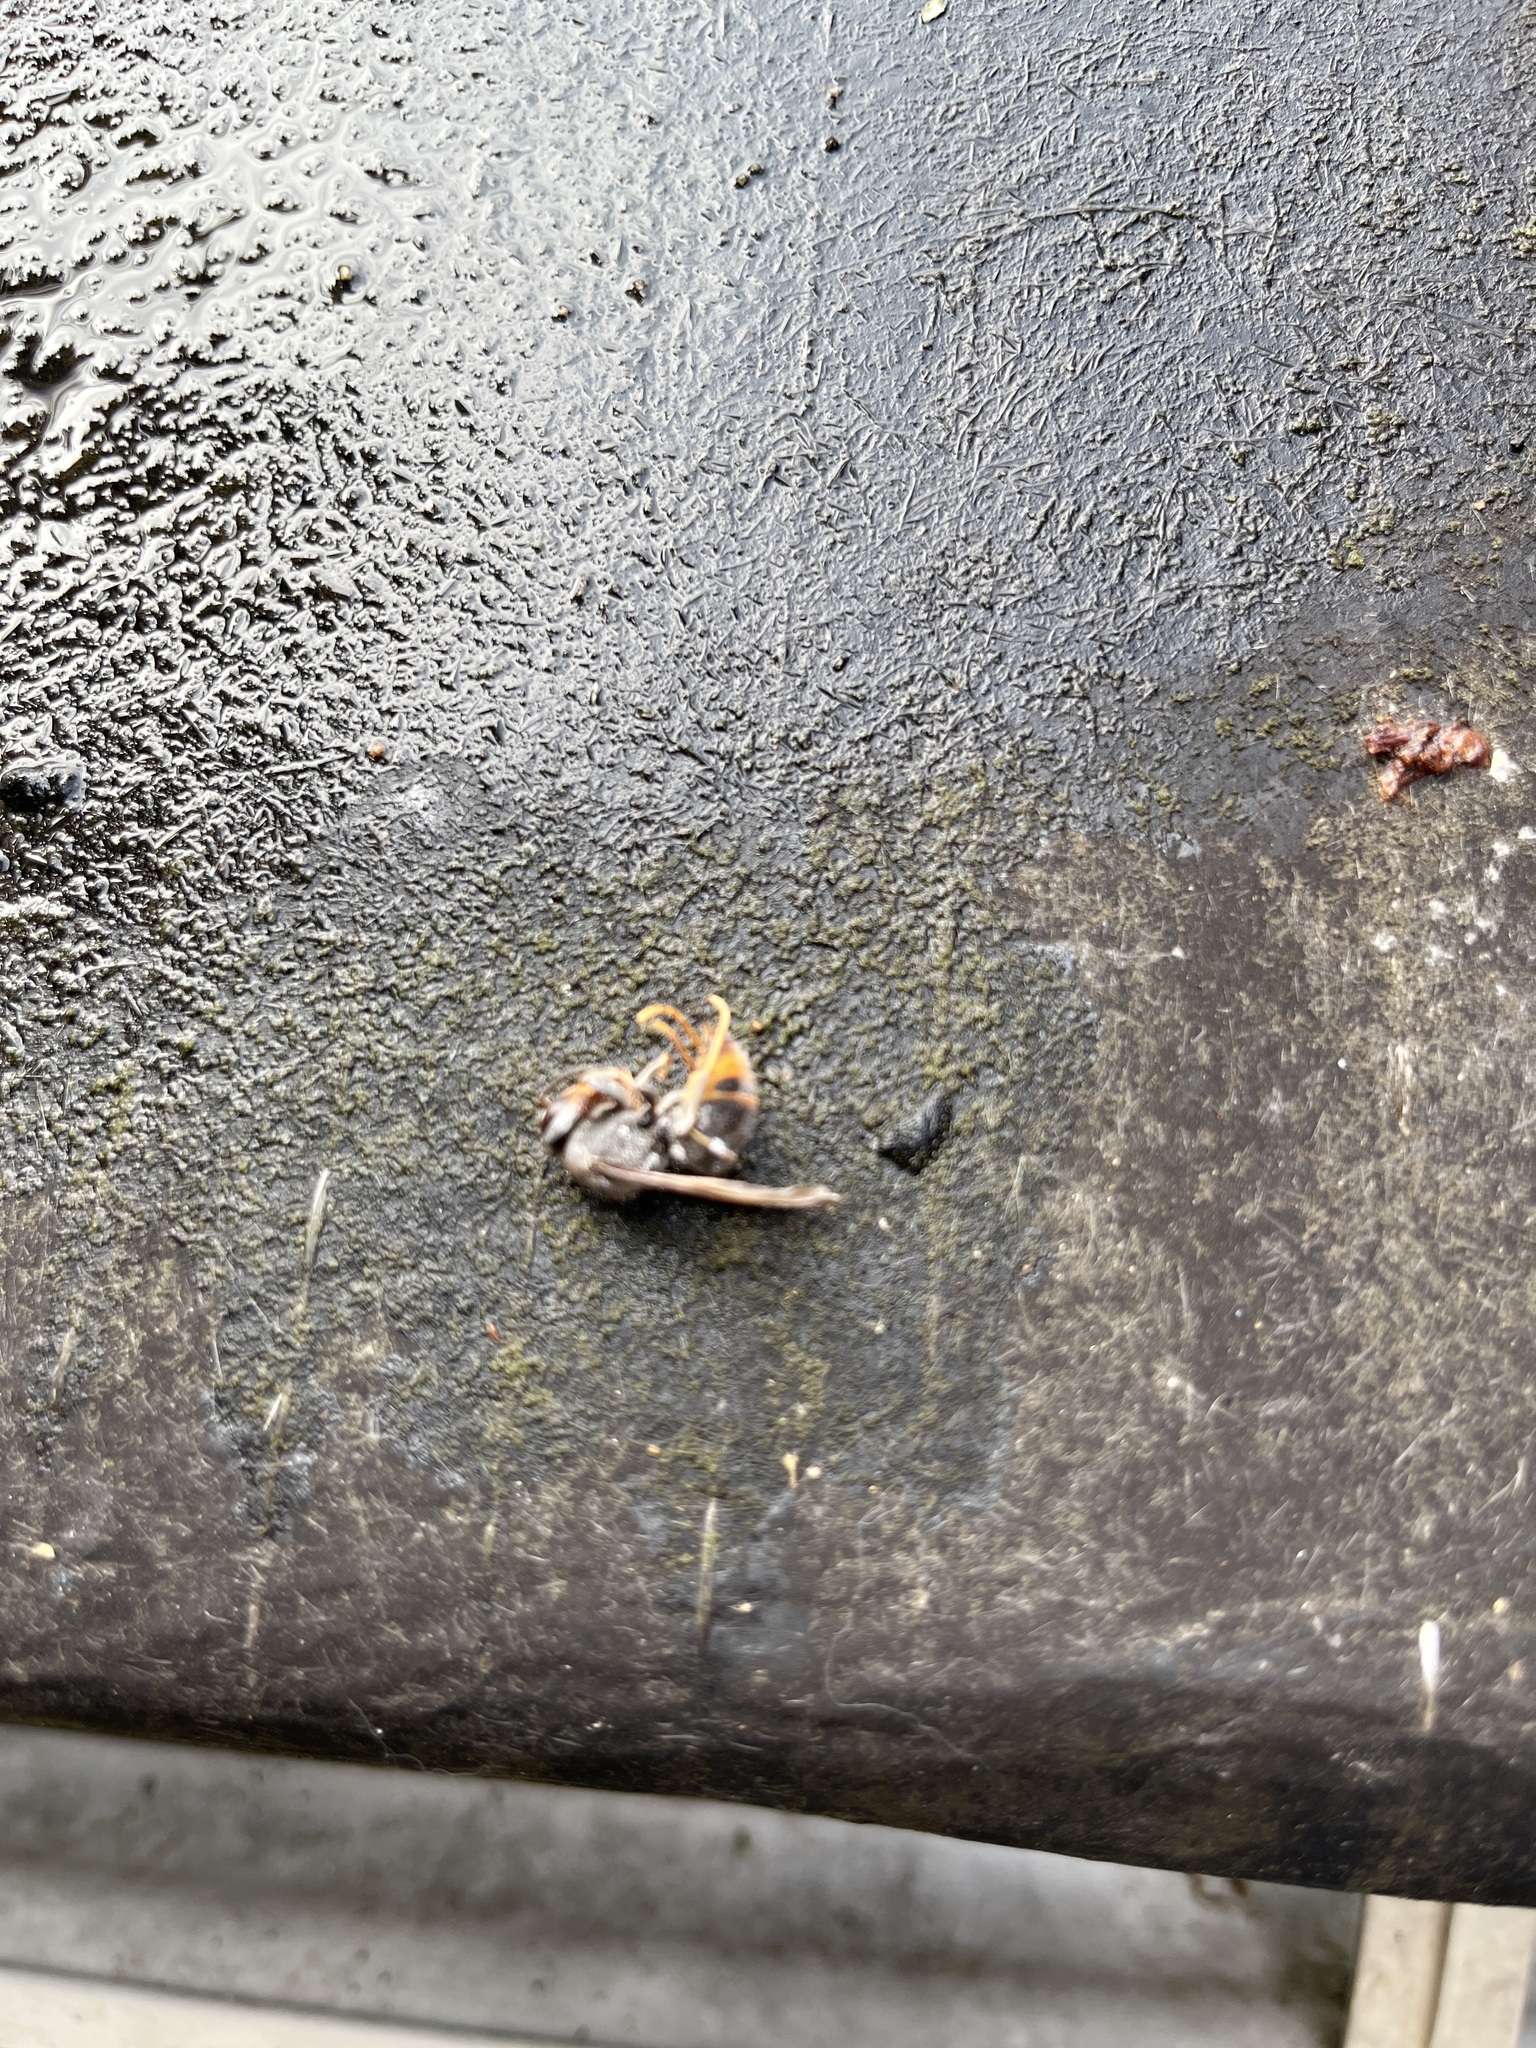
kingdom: Animalia
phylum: Arthropoda
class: Insecta
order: Hymenoptera
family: Vespidae
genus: Vespa
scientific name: Vespa velutina
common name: Asian hornet
